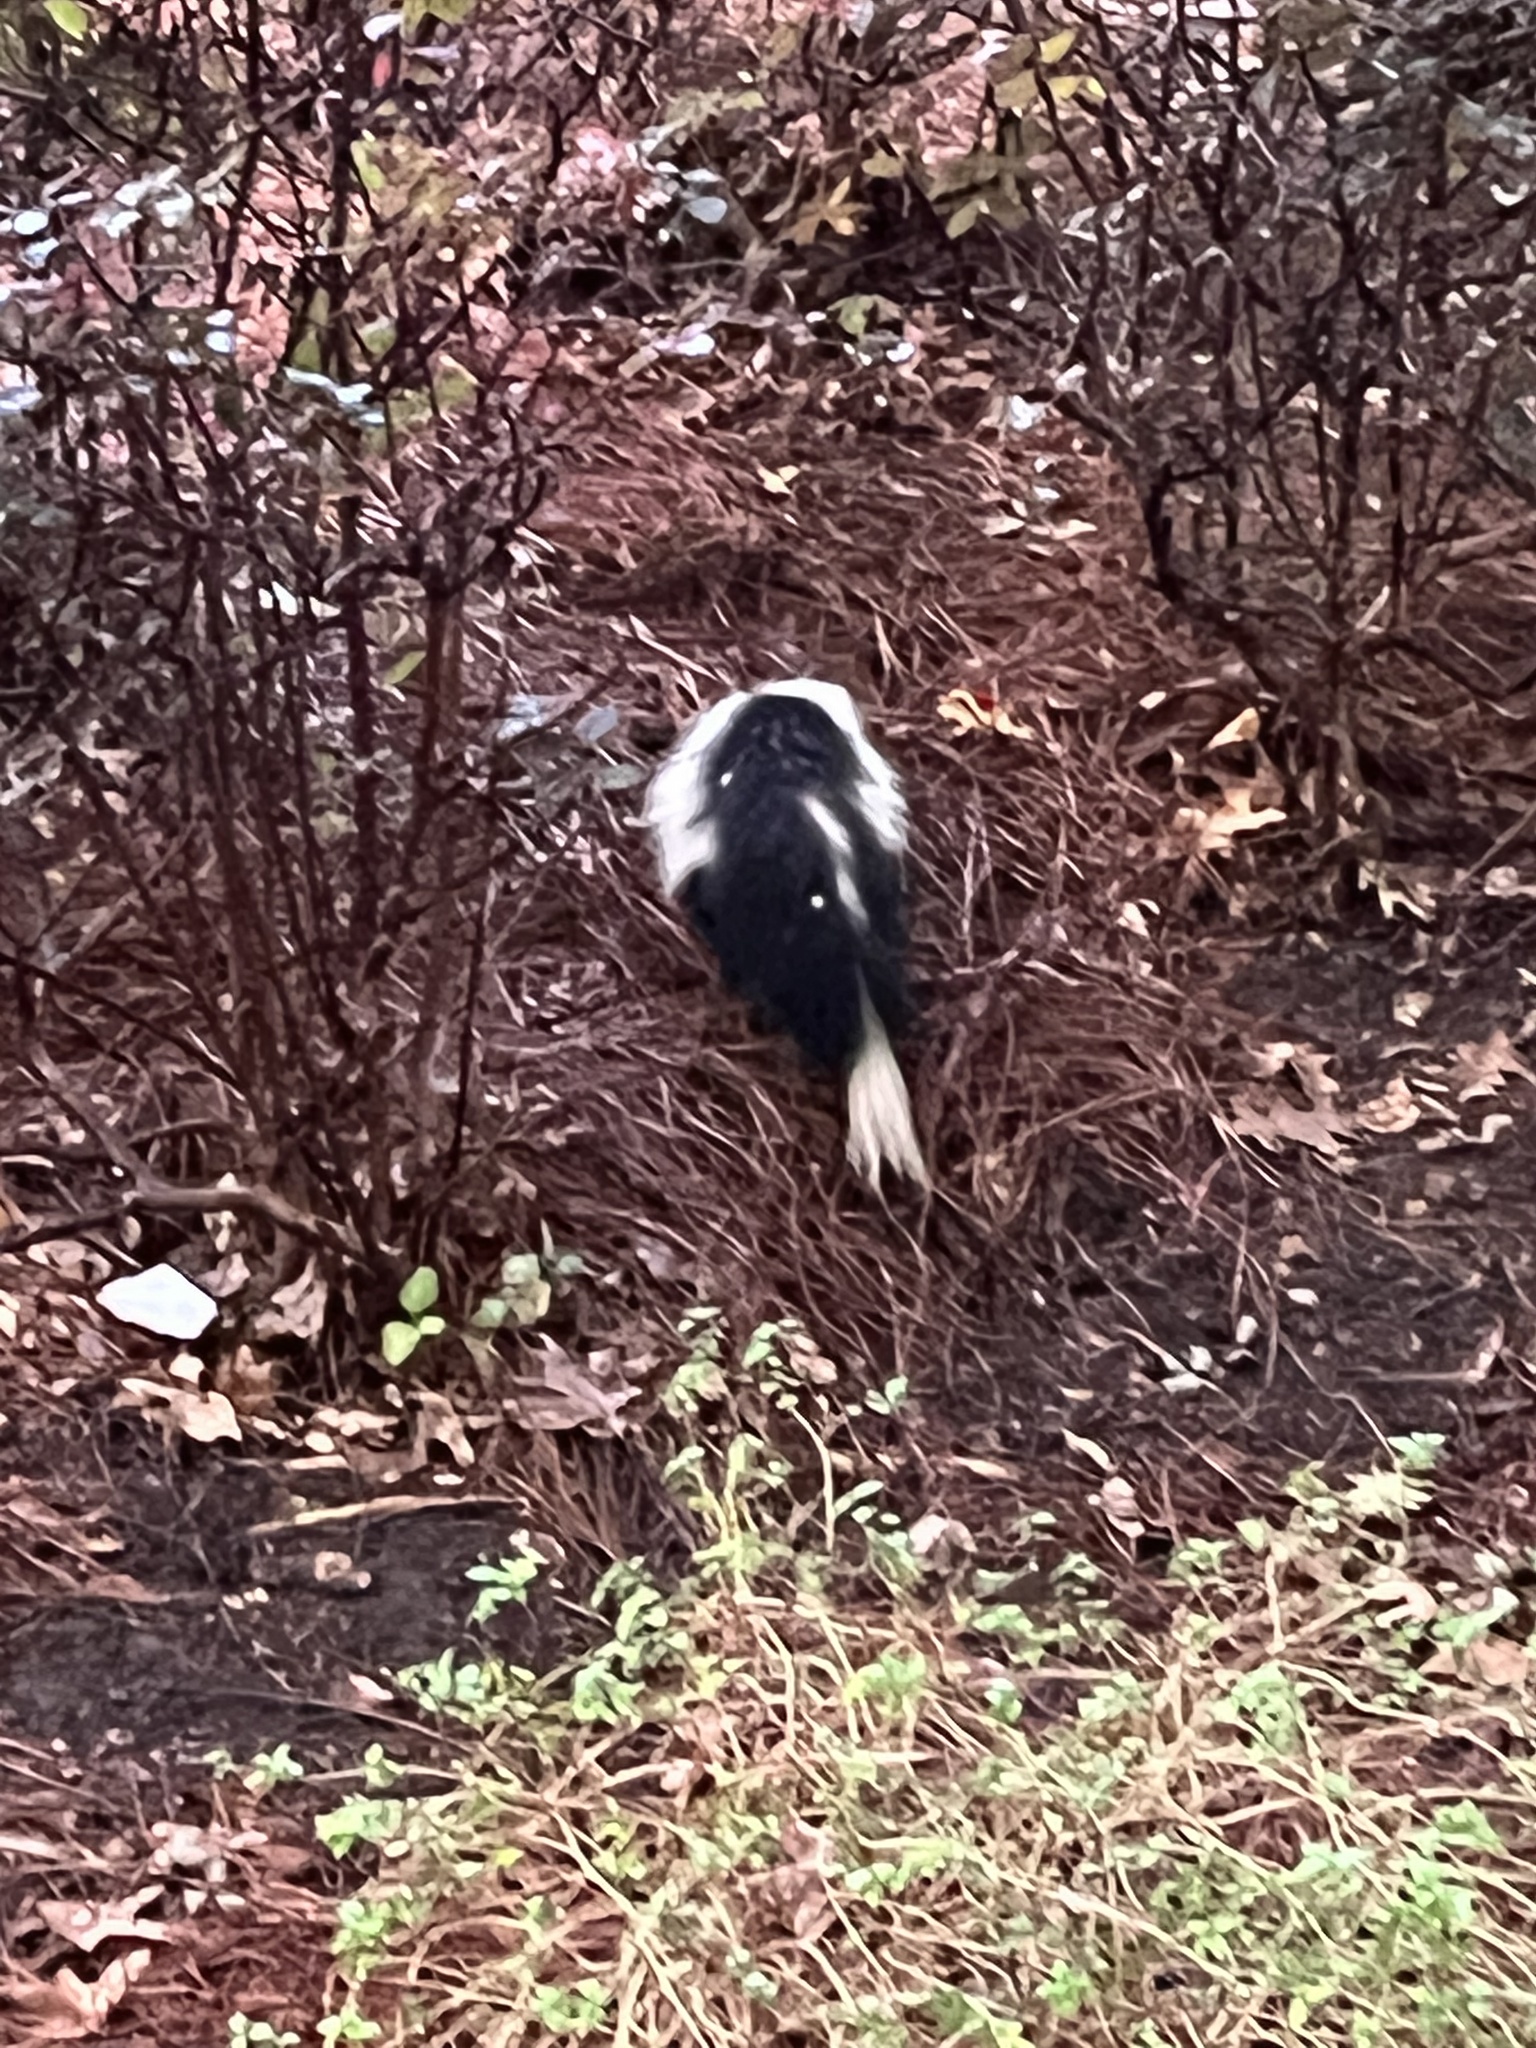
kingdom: Animalia
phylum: Chordata
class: Mammalia
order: Carnivora
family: Mephitidae
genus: Mephitis
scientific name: Mephitis mephitis
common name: Striped skunk
